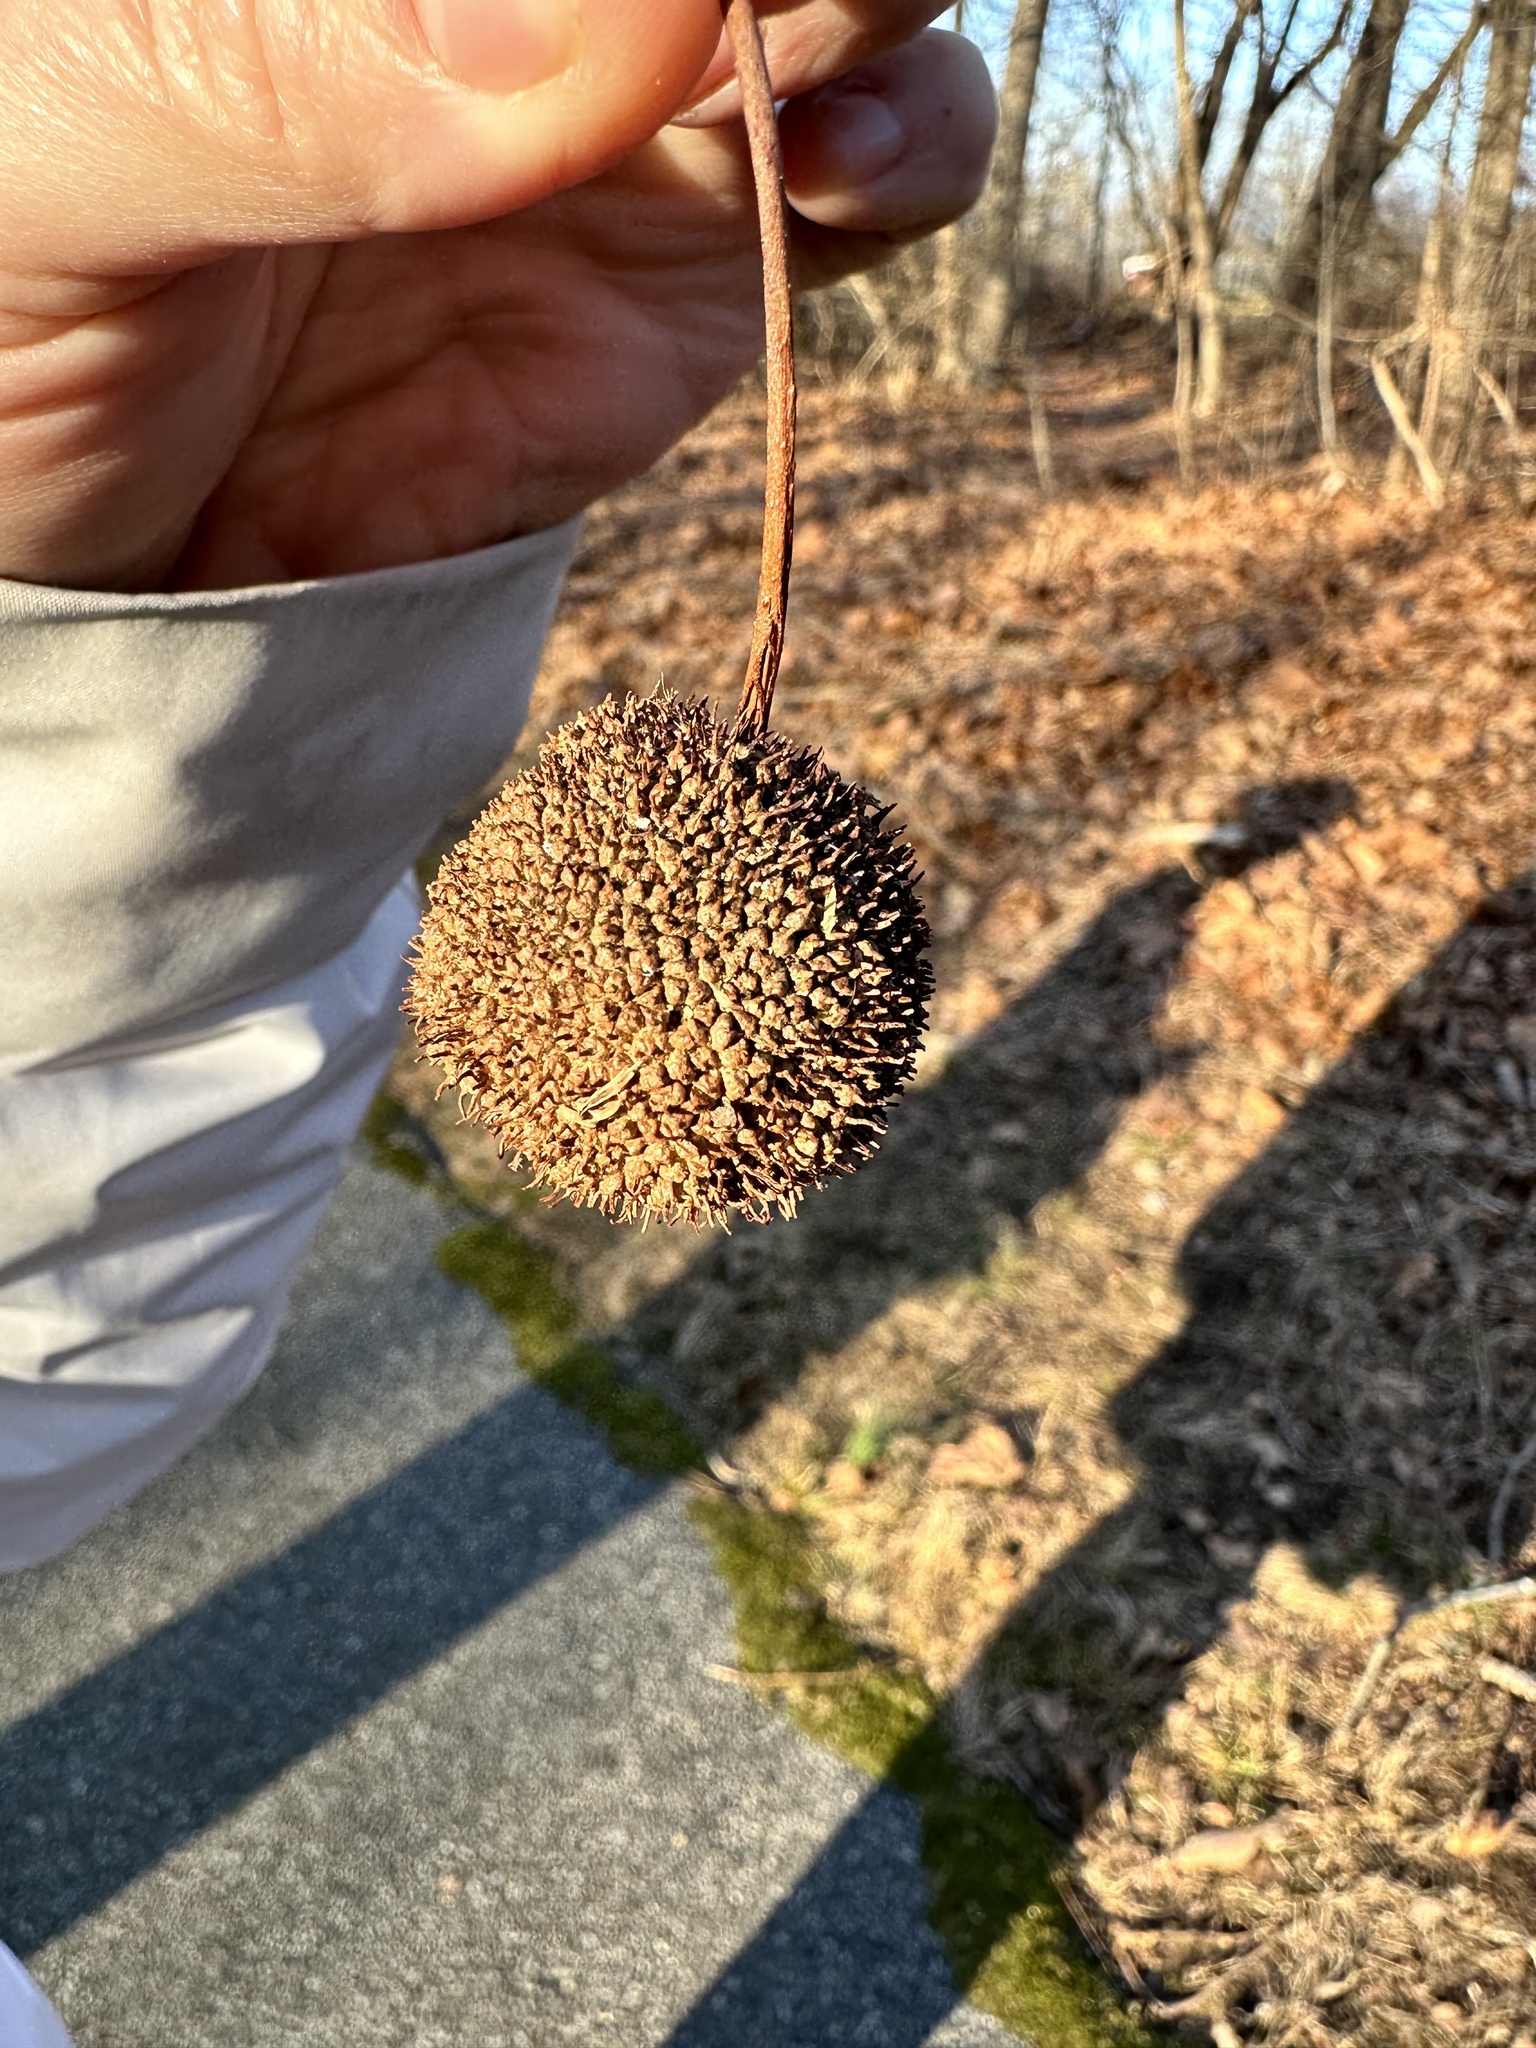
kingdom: Plantae
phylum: Tracheophyta
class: Magnoliopsida
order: Proteales
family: Platanaceae
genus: Platanus
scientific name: Platanus occidentalis
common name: American sycamore
